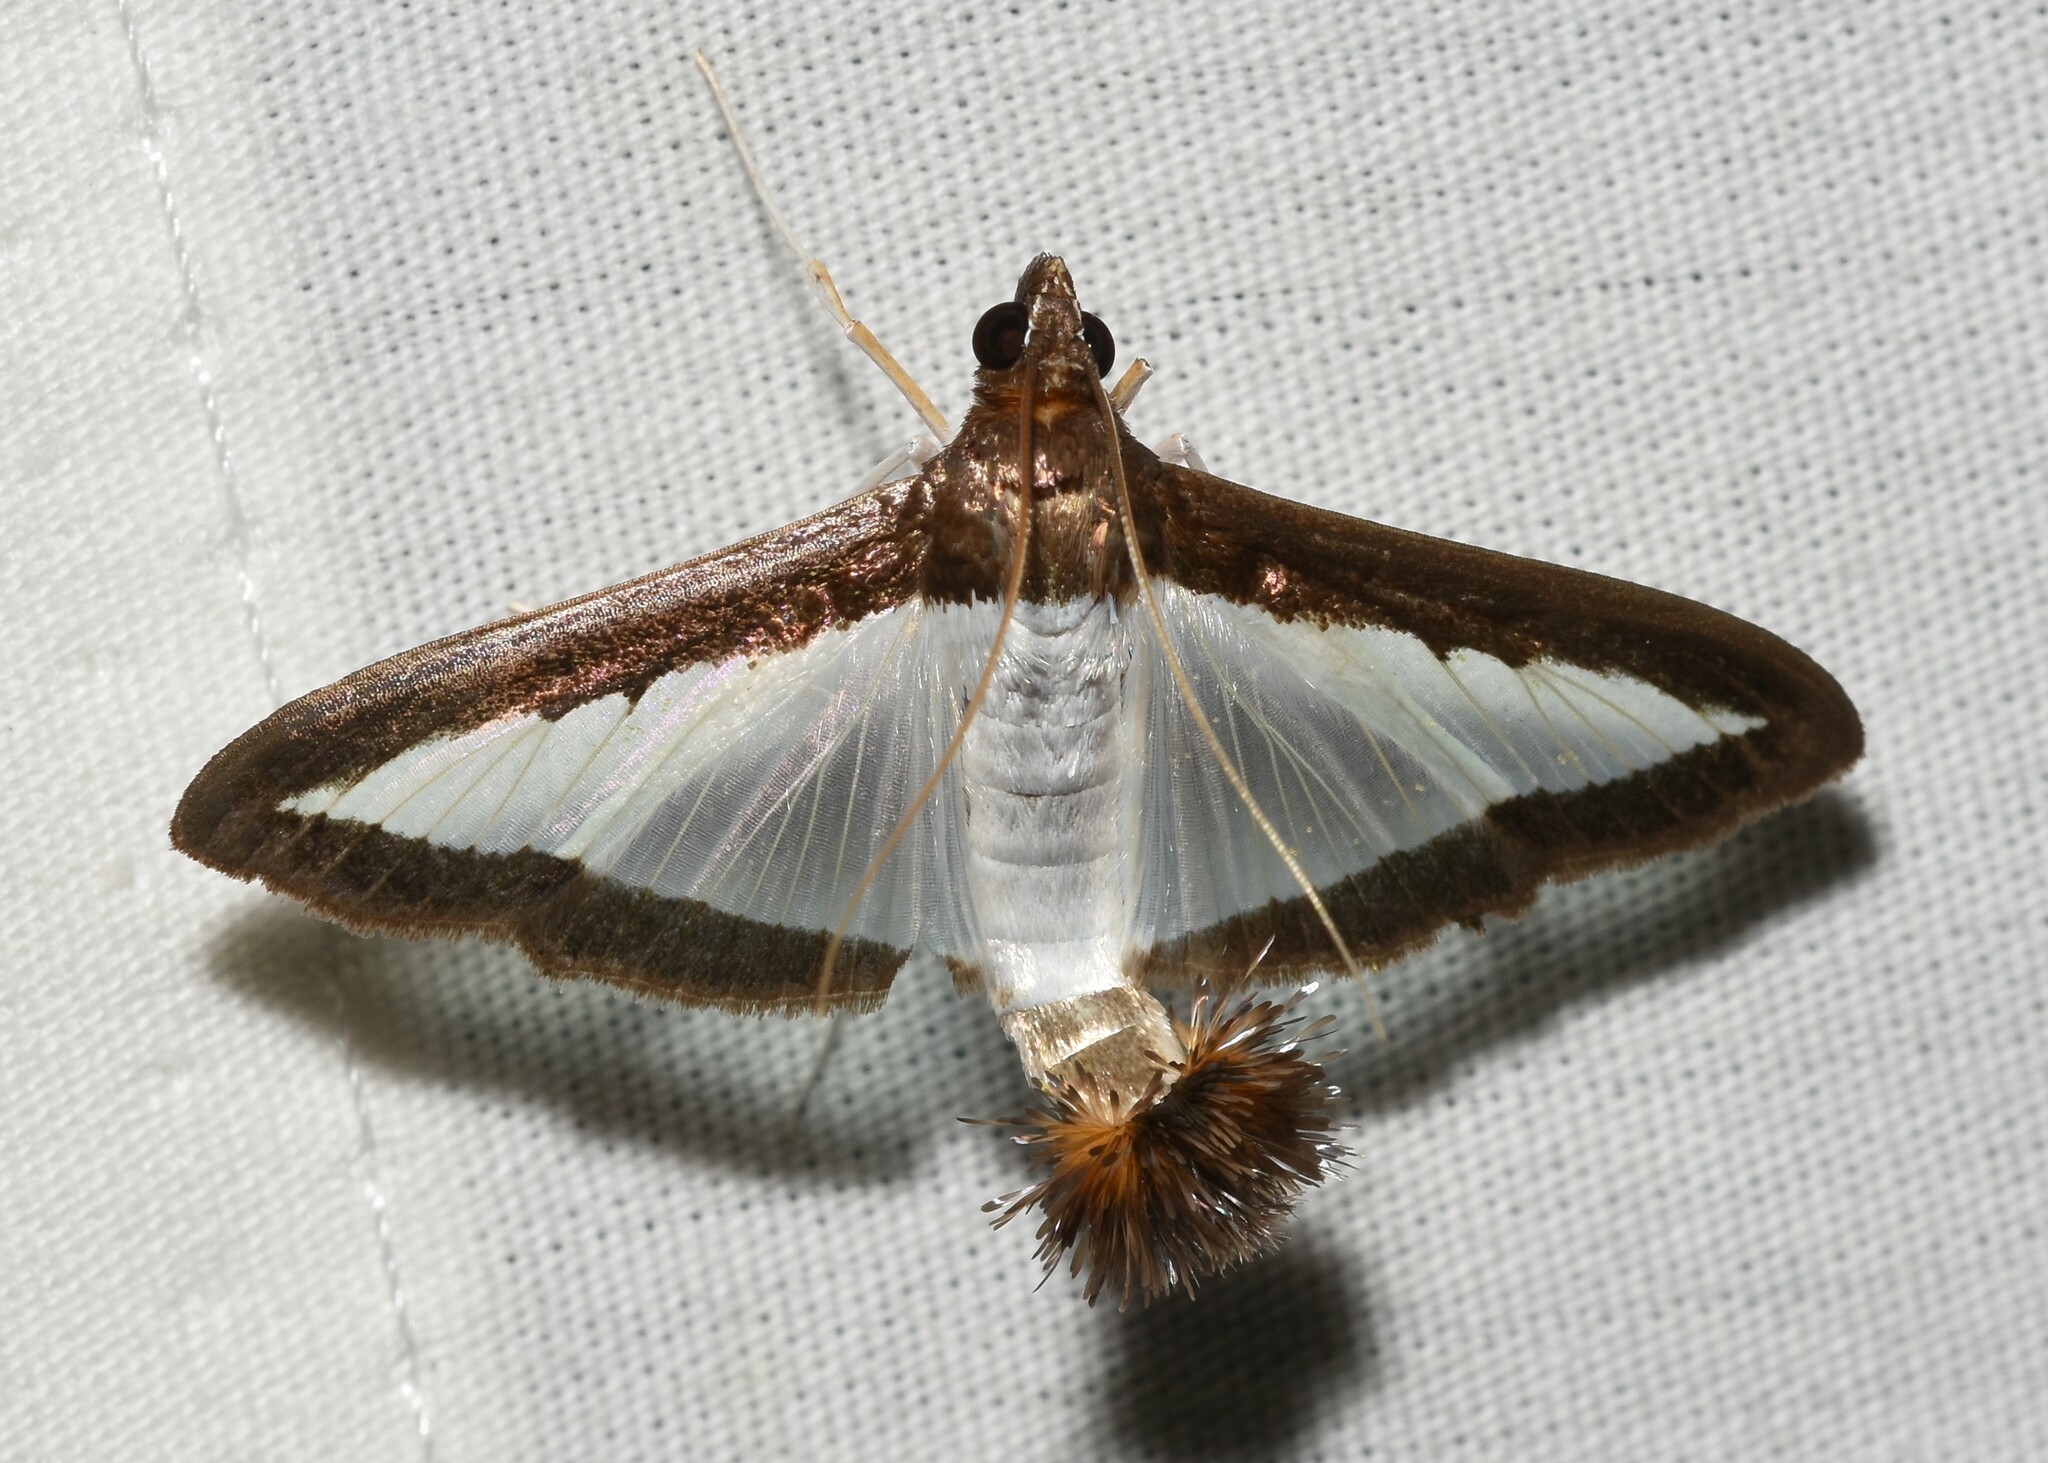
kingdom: Animalia
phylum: Arthropoda
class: Insecta
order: Lepidoptera
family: Crambidae
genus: Diaphania
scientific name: Diaphania hyalinata
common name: Melonworm
